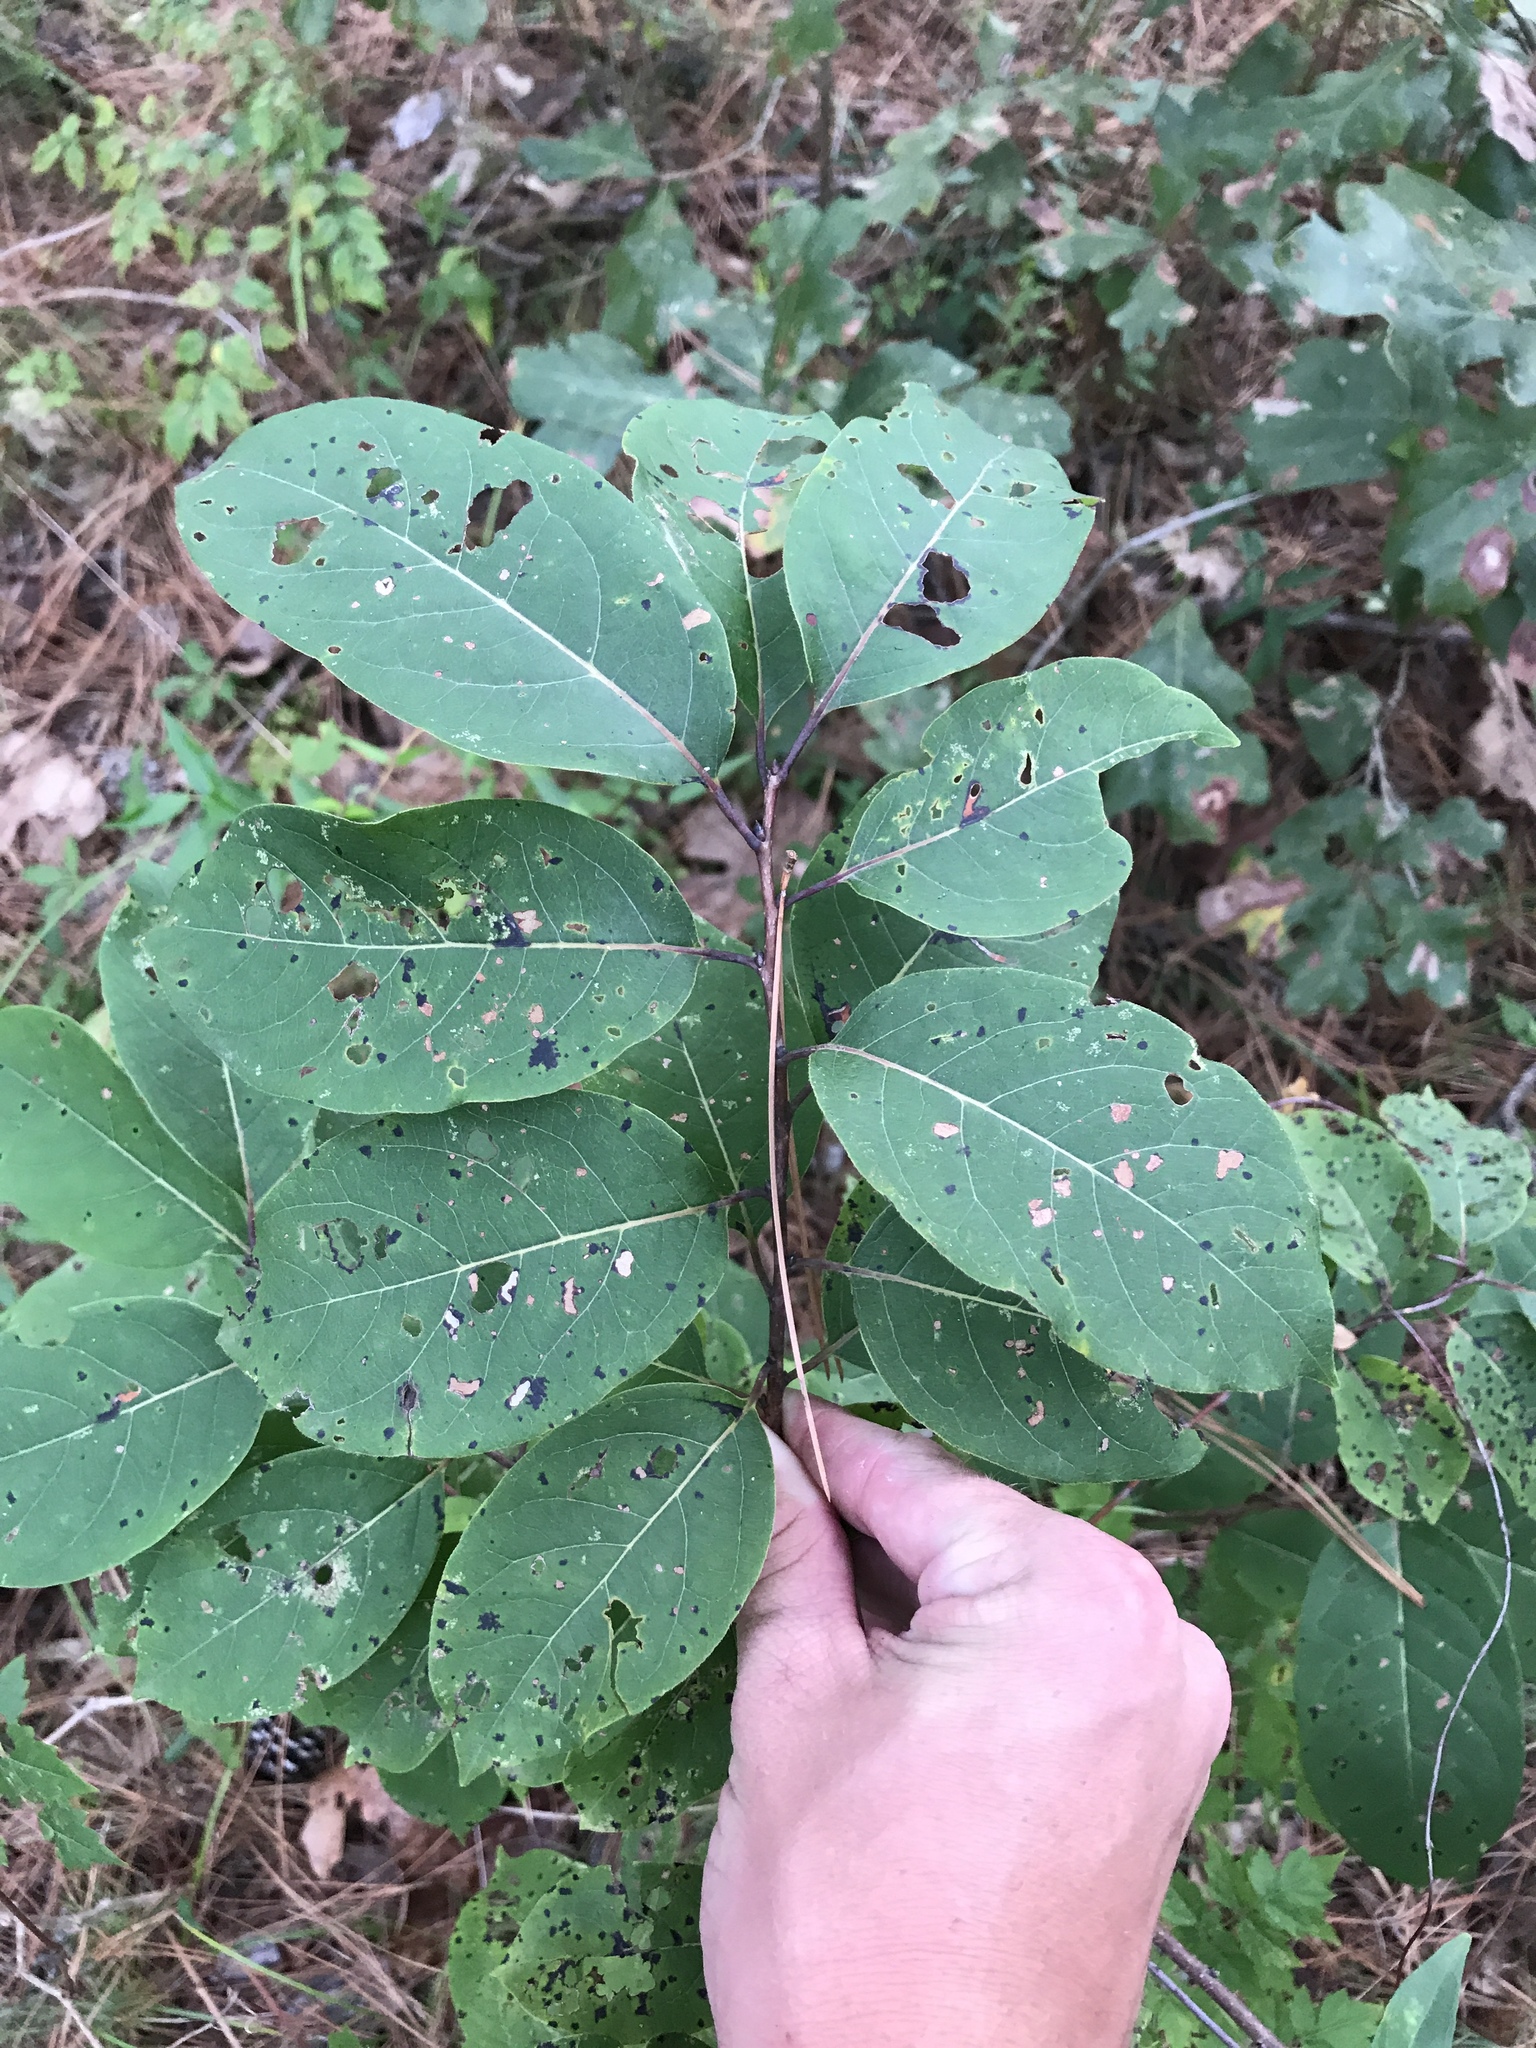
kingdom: Plantae
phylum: Tracheophyta
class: Magnoliopsida
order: Ericales
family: Ebenaceae
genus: Diospyros
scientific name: Diospyros virginiana
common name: Persimmon
